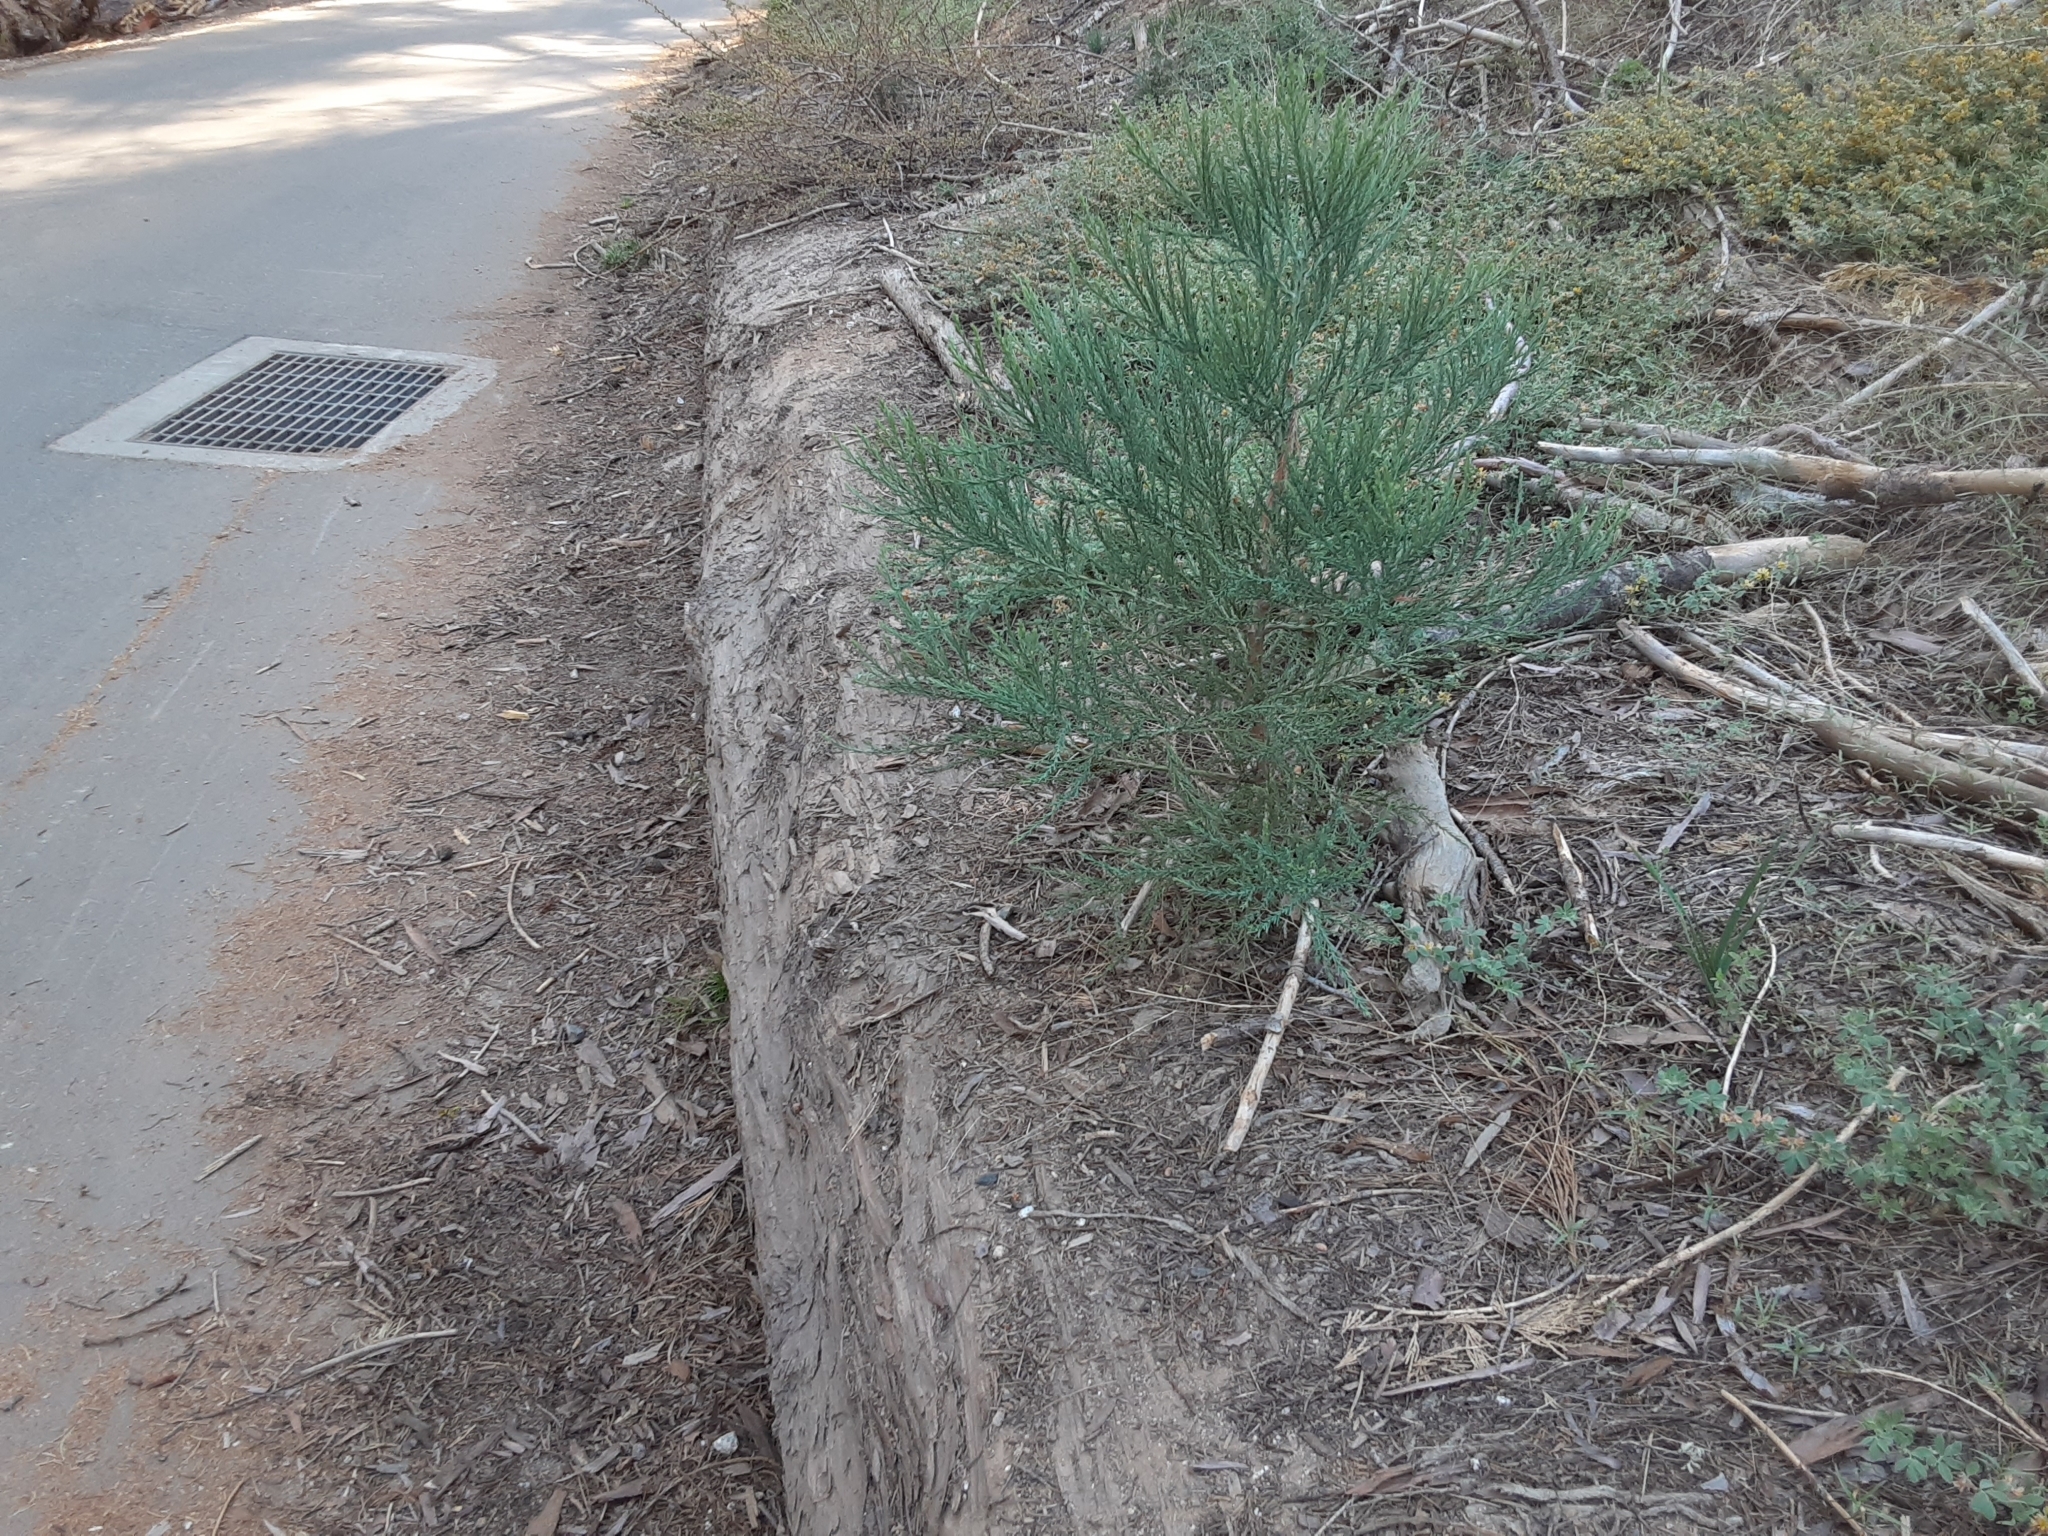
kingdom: Plantae
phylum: Tracheophyta
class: Pinopsida
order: Pinales
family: Cupressaceae
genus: Sequoiadendron
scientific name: Sequoiadendron giganteum
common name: Wellingtonia
